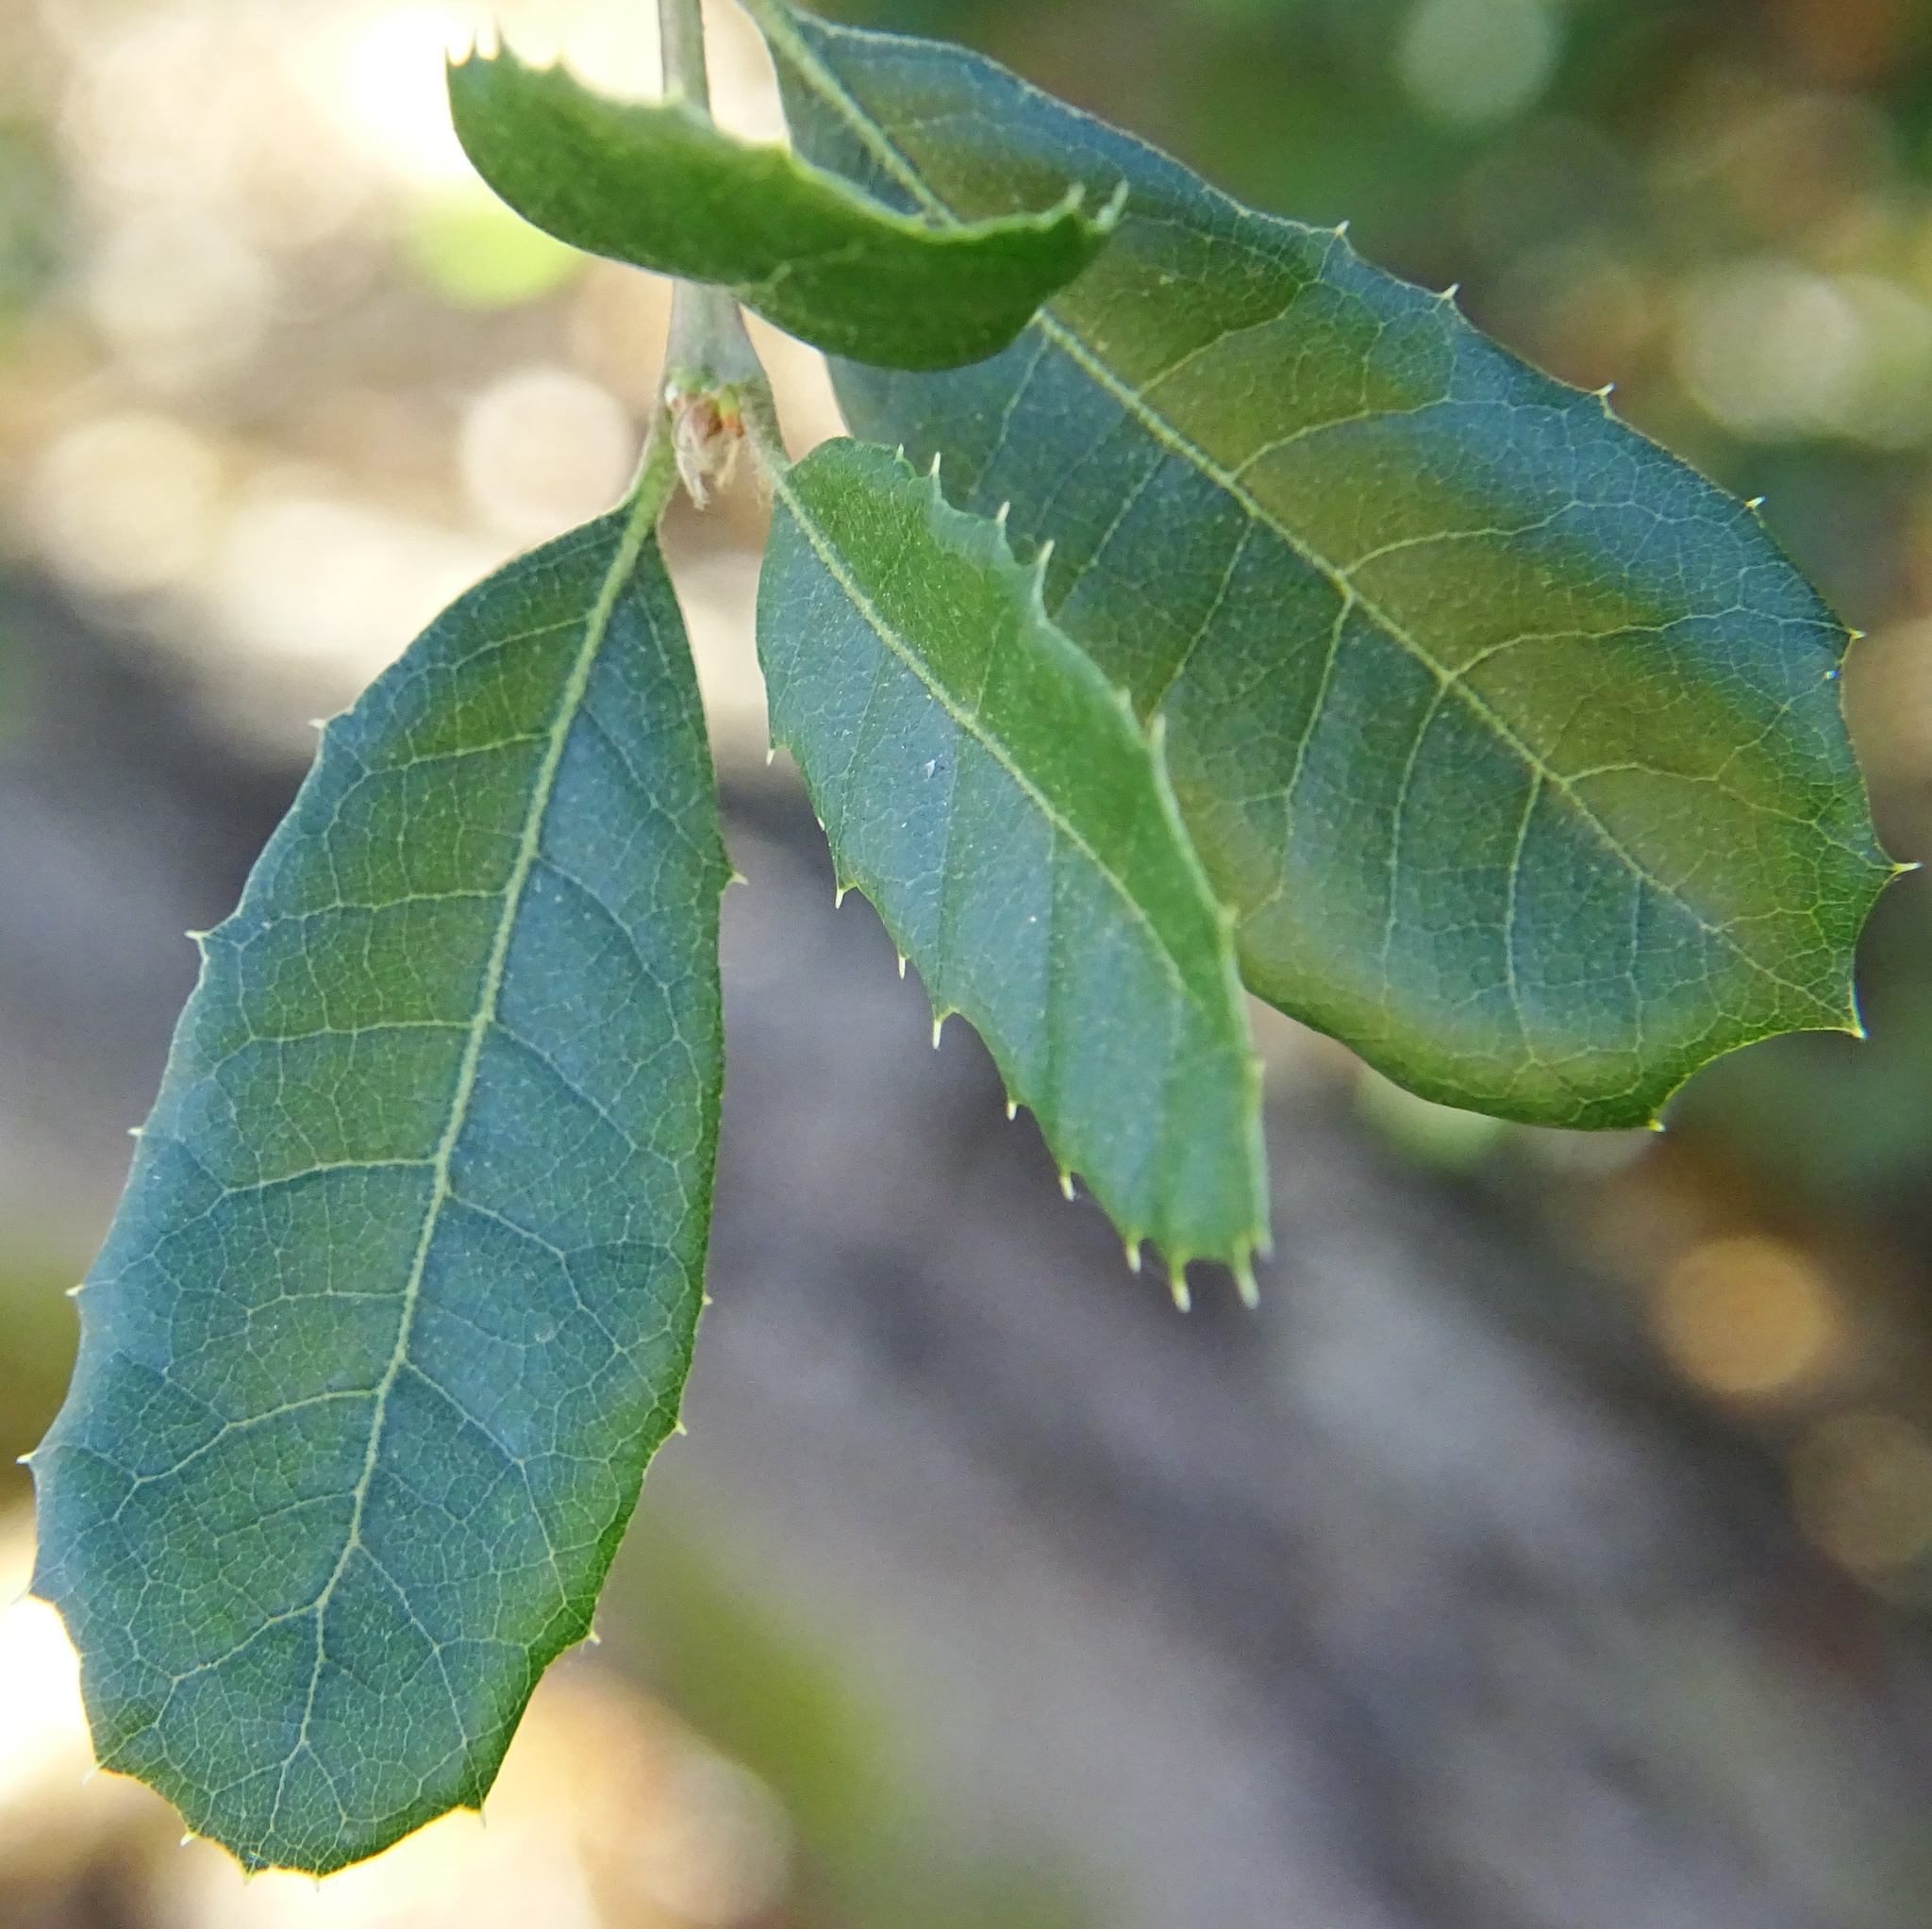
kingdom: Plantae
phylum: Tracheophyta
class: Magnoliopsida
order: Fagales
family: Fagaceae
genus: Quercus
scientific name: Quercus wislizeni
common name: Interior live oak
